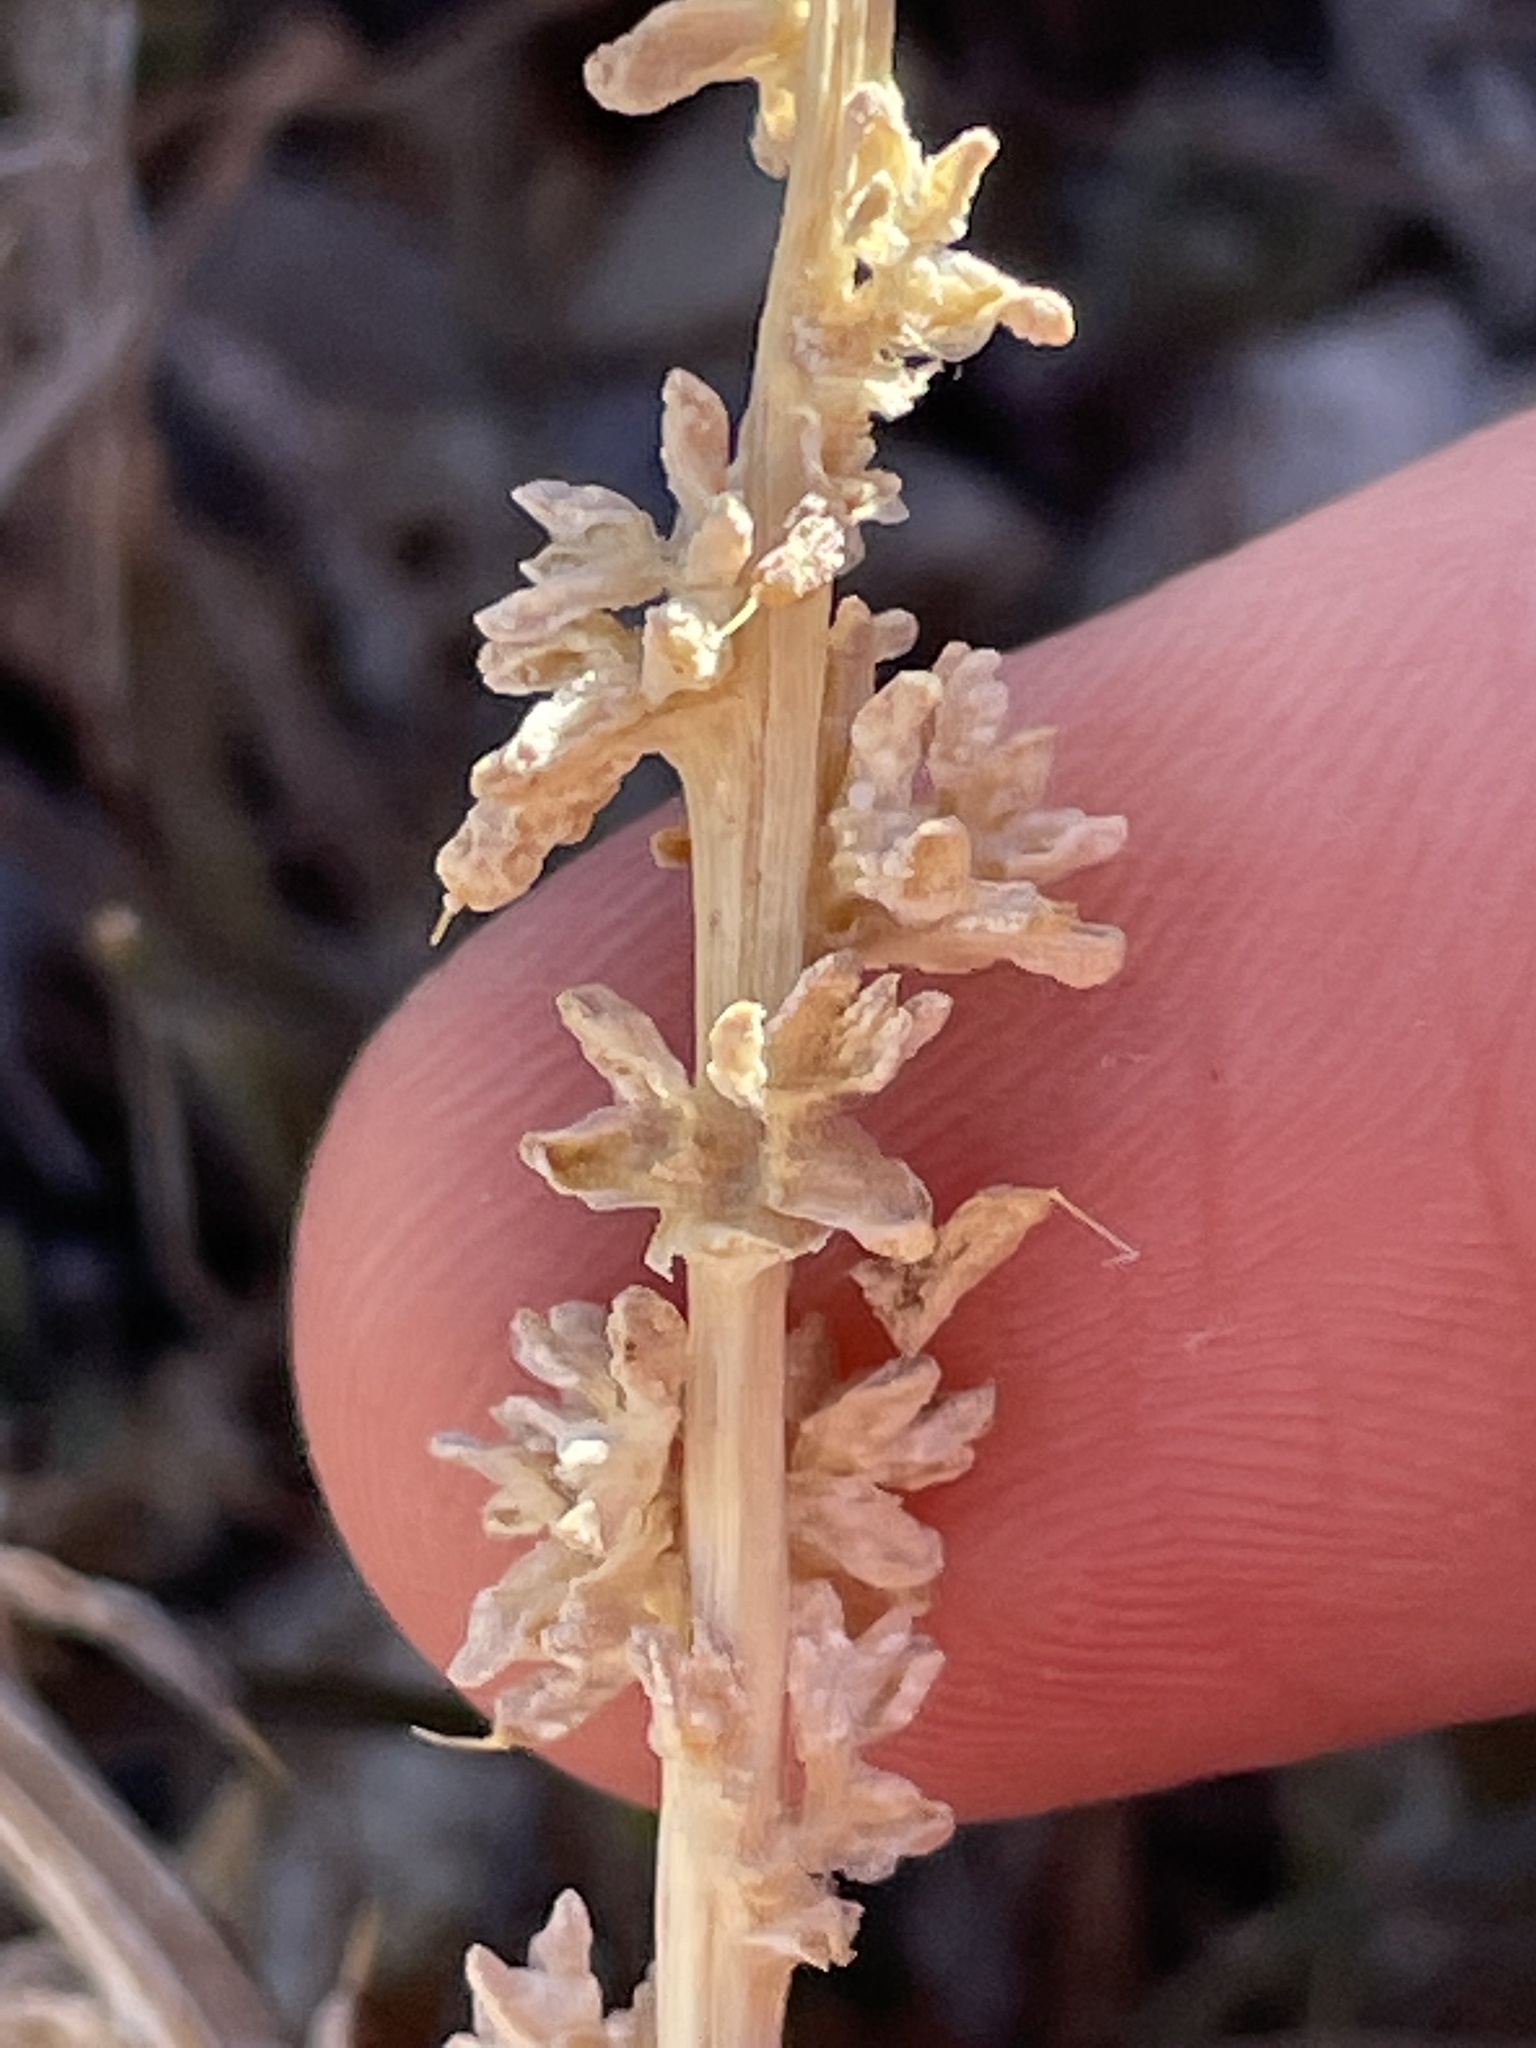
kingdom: Plantae
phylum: Tracheophyta
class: Magnoliopsida
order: Caryophyllales
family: Amaranthaceae
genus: Halogeton
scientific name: Halogeton glomeratus
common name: Saltlover
